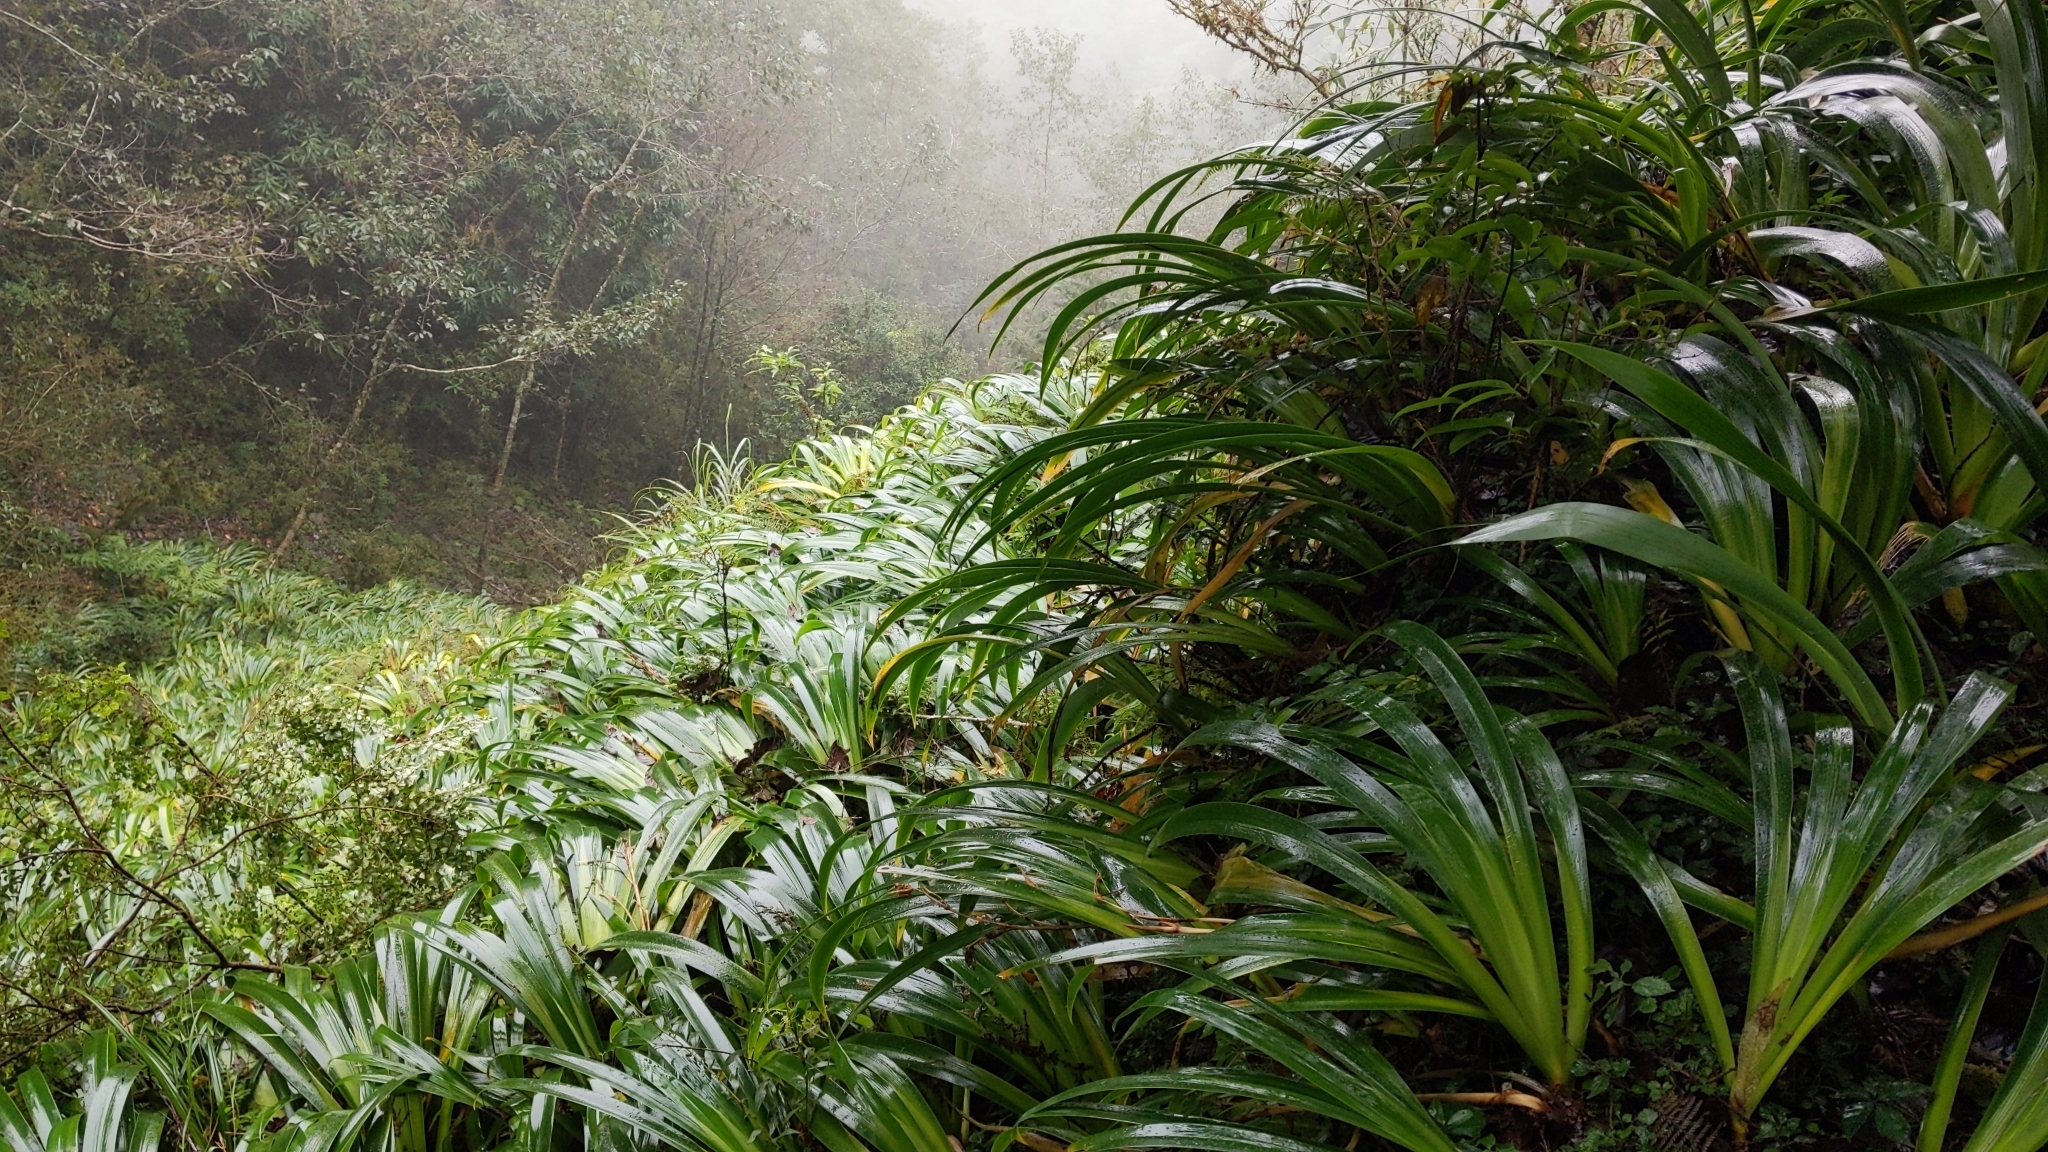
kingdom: Plantae
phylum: Tracheophyta
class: Liliopsida
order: Asparagales
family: Iridaceae
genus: Iris
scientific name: Iris formosana
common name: Taiwan iris
